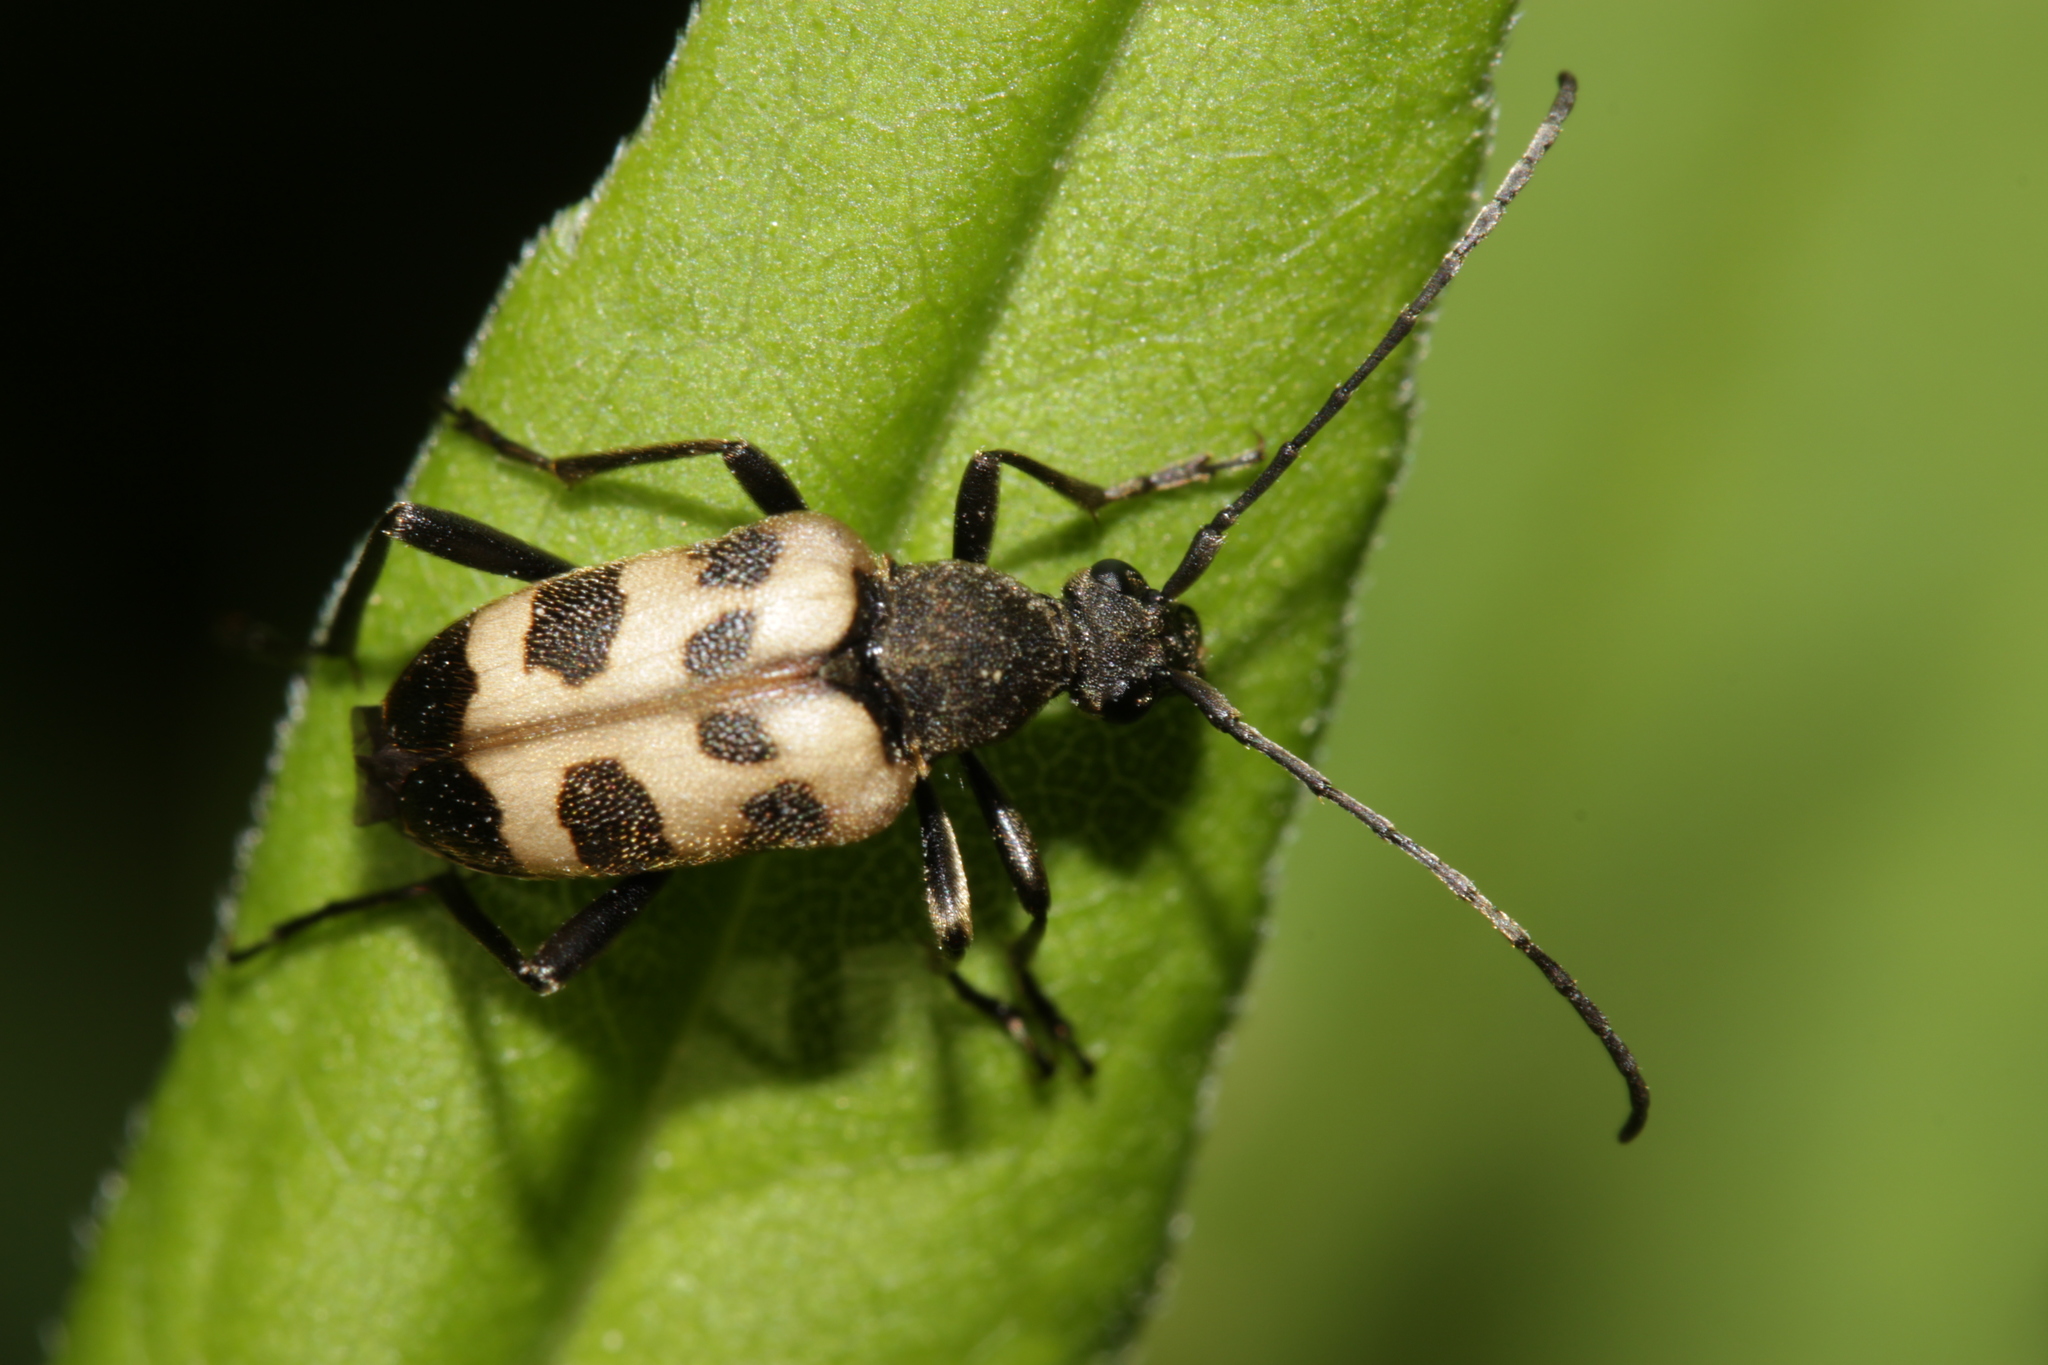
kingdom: Animalia
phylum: Arthropoda
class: Insecta
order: Coleoptera
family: Cerambycidae
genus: Pachytodes
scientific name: Pachytodes cerambyciformis
